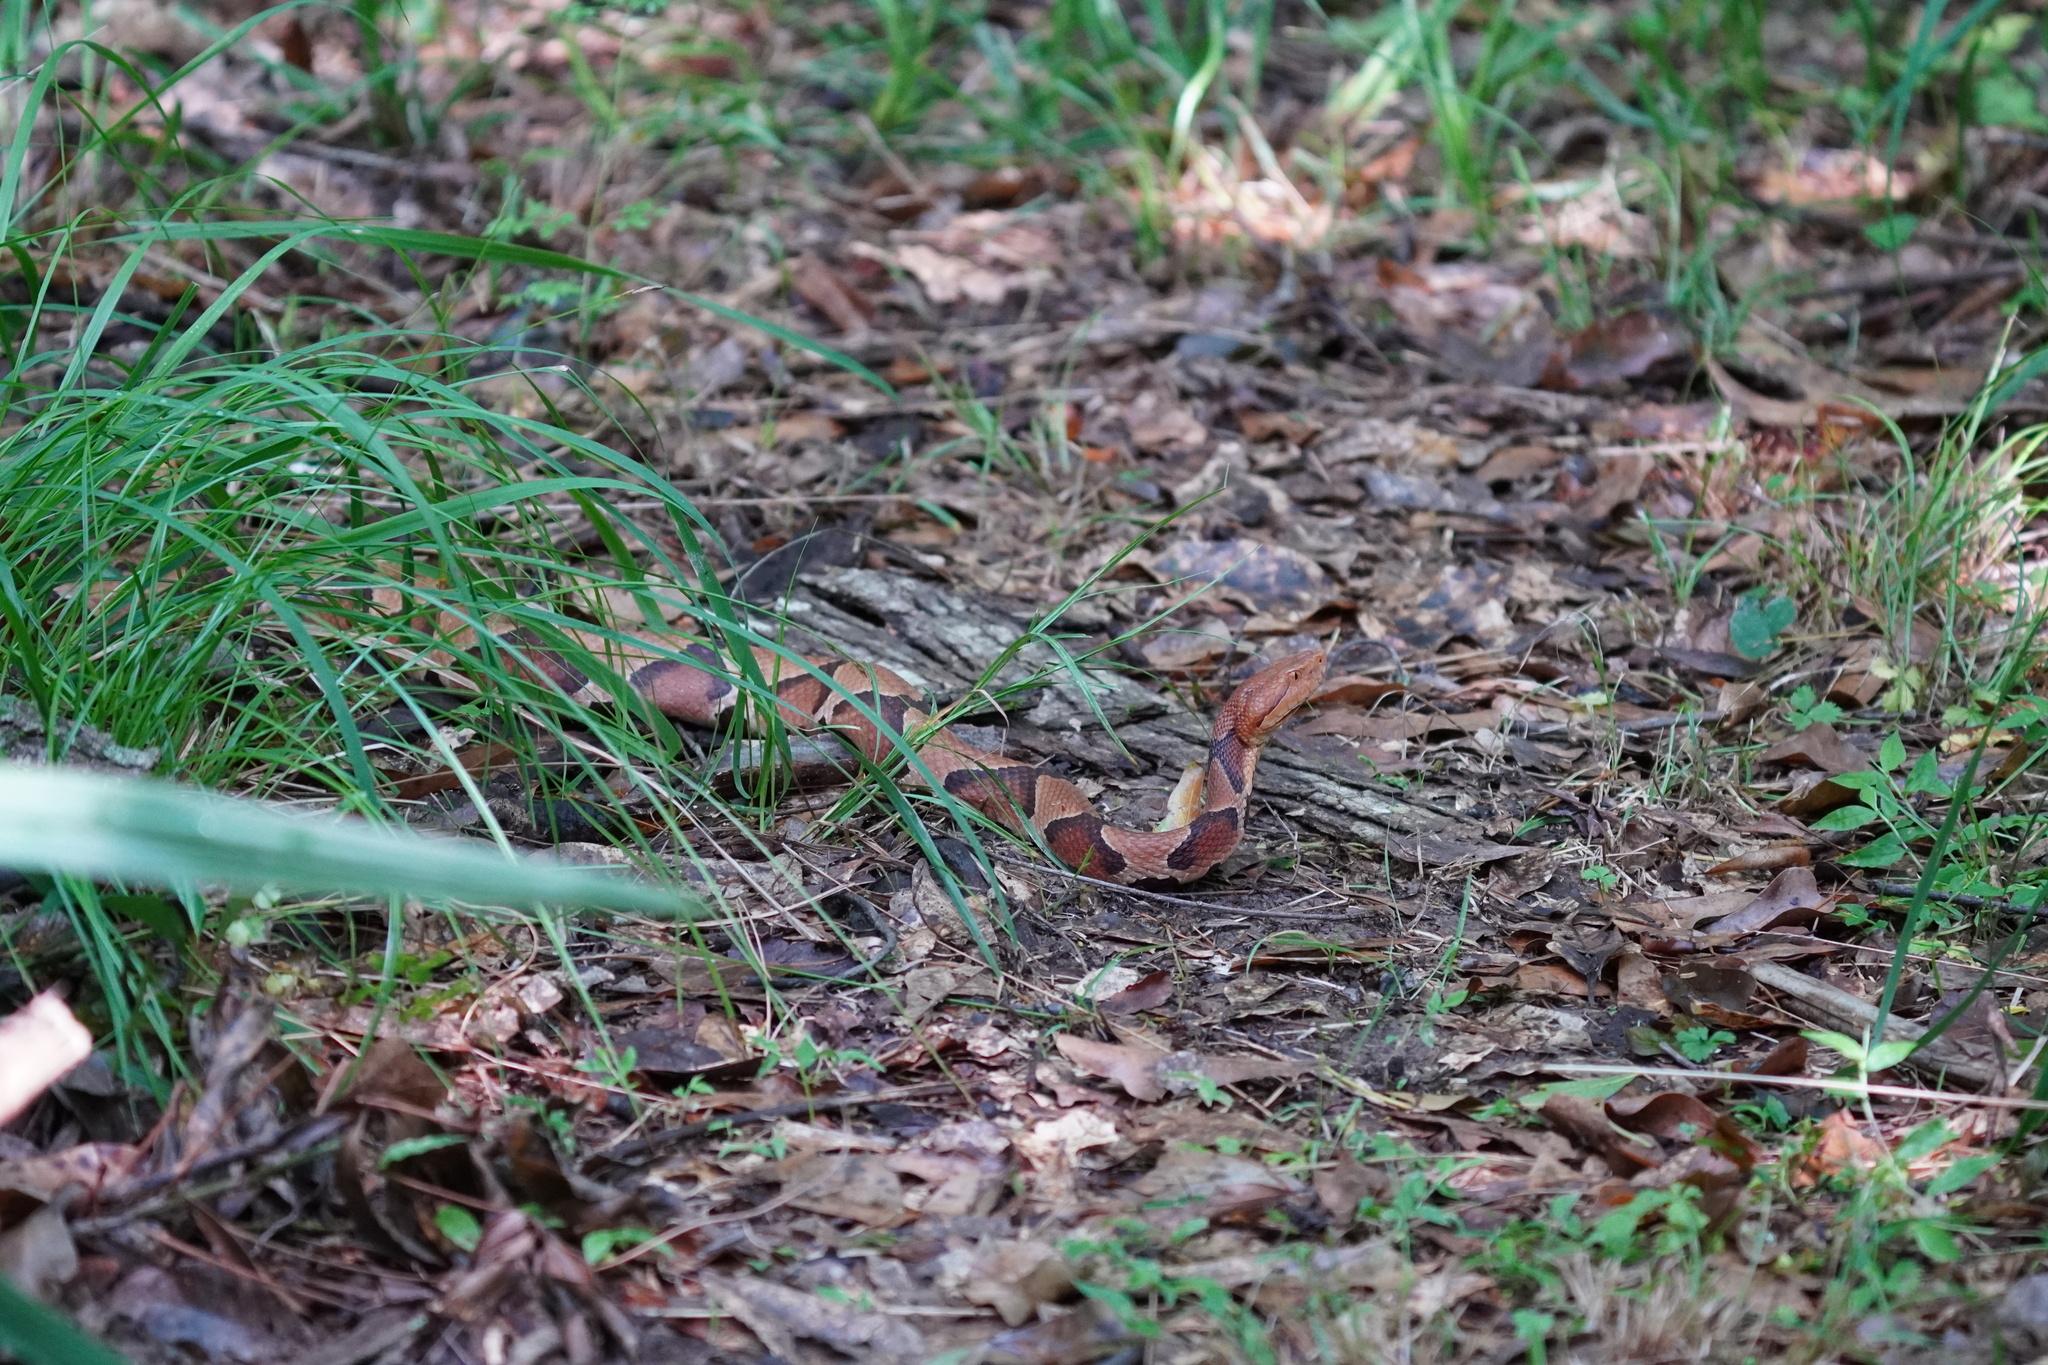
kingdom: Animalia
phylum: Chordata
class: Squamata
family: Viperidae
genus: Agkistrodon
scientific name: Agkistrodon contortrix
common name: Northern copperhead
